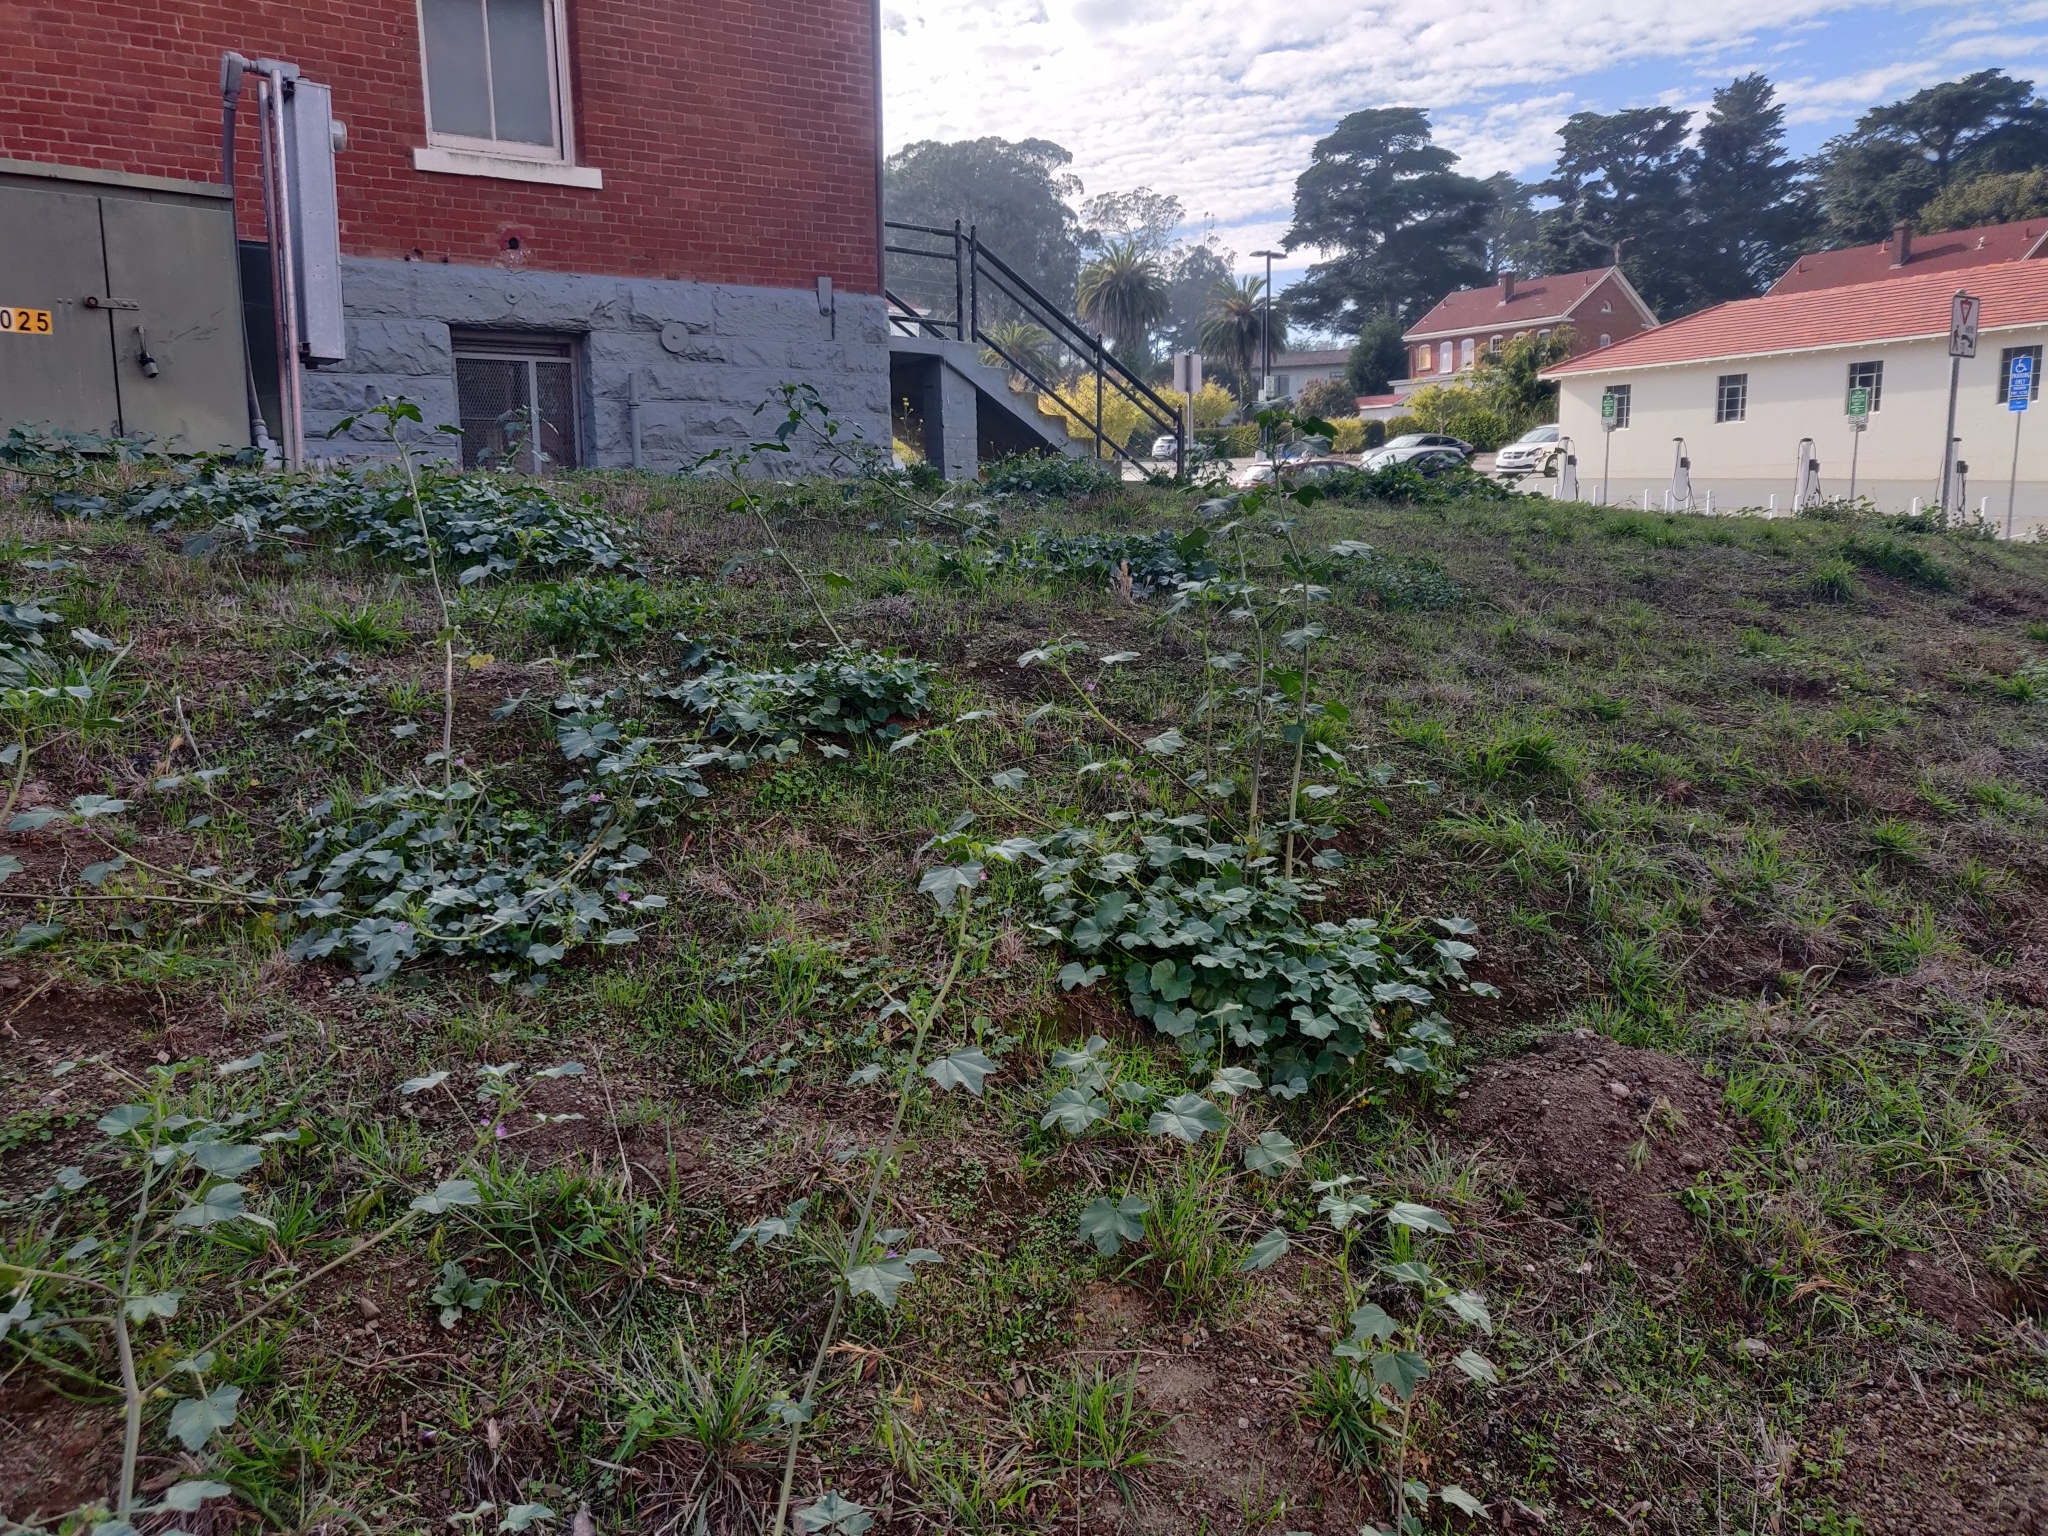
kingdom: Plantae
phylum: Tracheophyta
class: Magnoliopsida
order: Malvales
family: Malvaceae
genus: Malva
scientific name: Malva multiflora
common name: Cheeseweed
